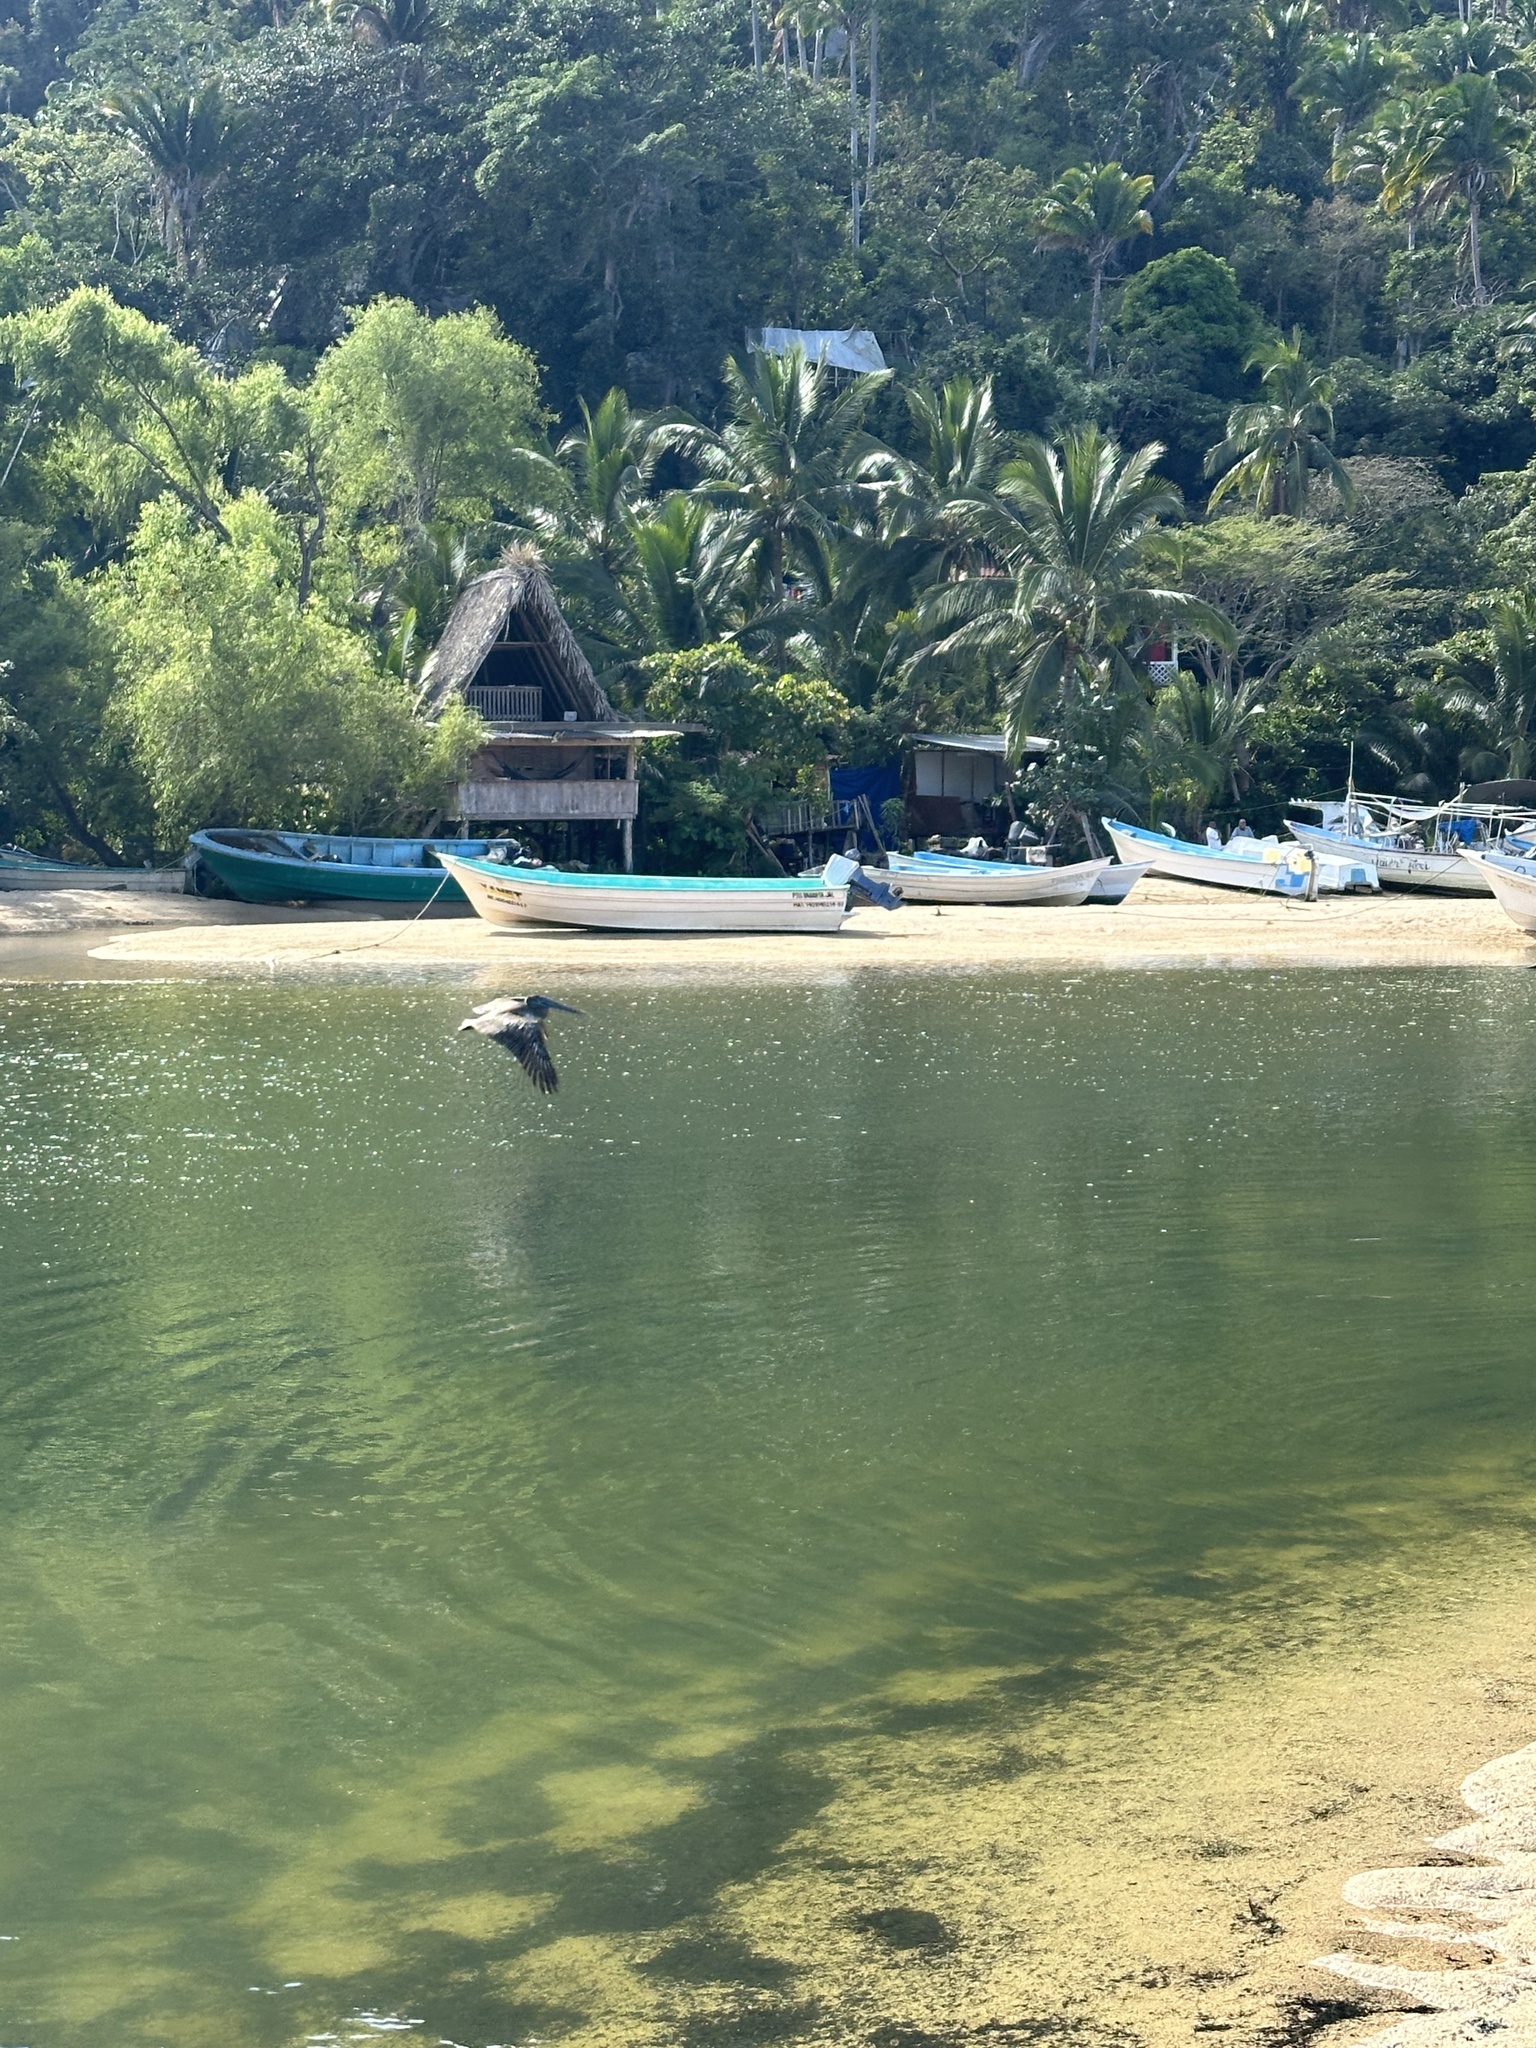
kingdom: Animalia
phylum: Chordata
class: Aves
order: Pelecaniformes
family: Pelecanidae
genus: Pelecanus
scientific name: Pelecanus occidentalis
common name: Brown pelican
